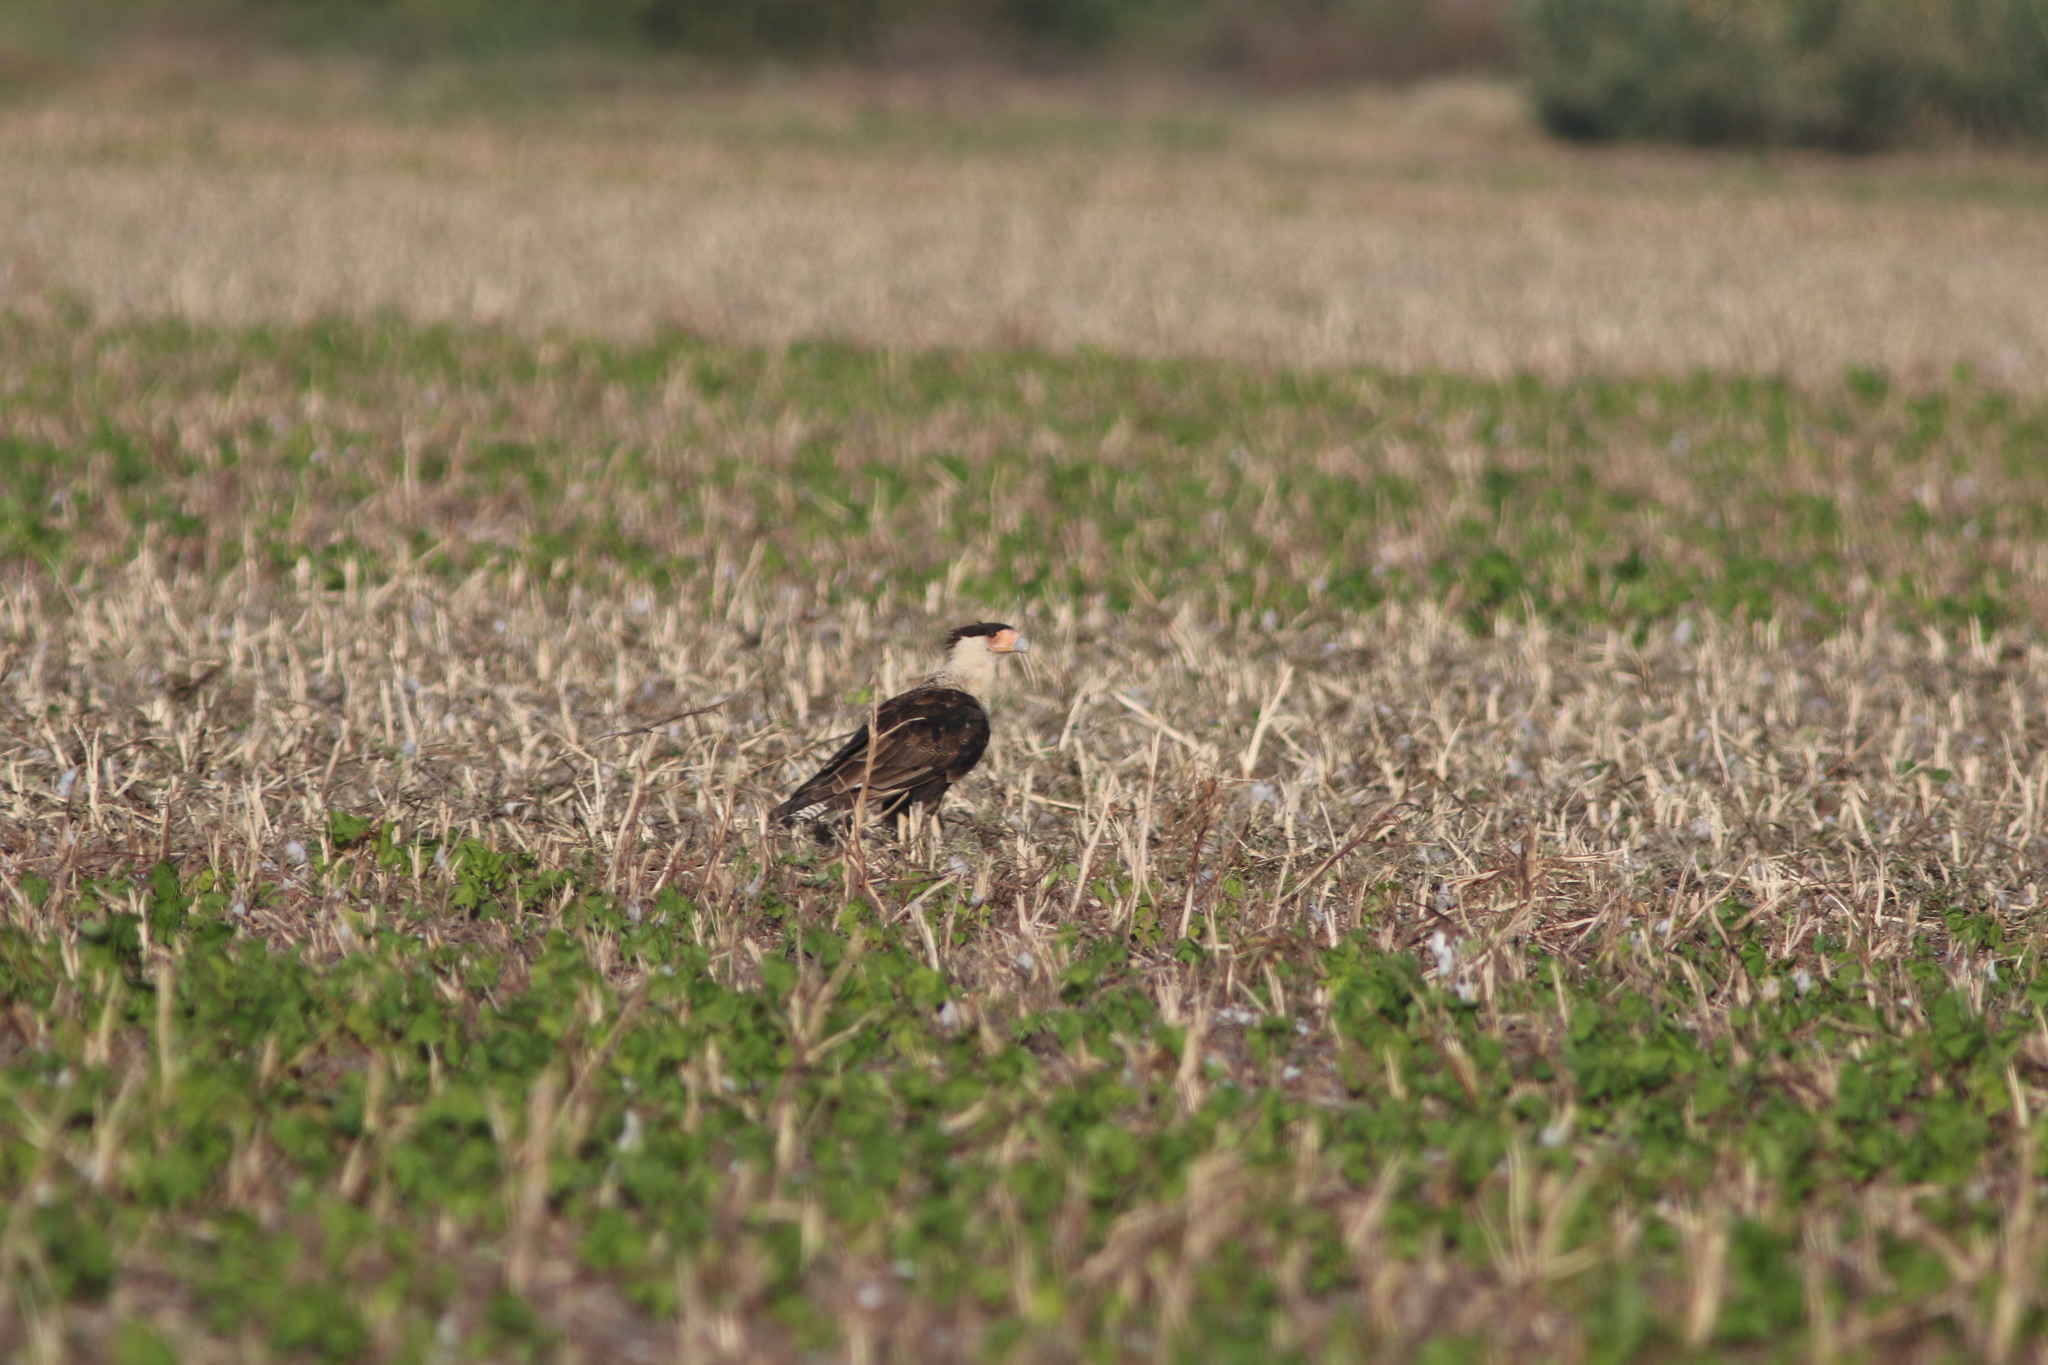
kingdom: Animalia
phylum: Chordata
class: Aves
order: Falconiformes
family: Falconidae
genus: Caracara
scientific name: Caracara plancus
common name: Southern caracara
